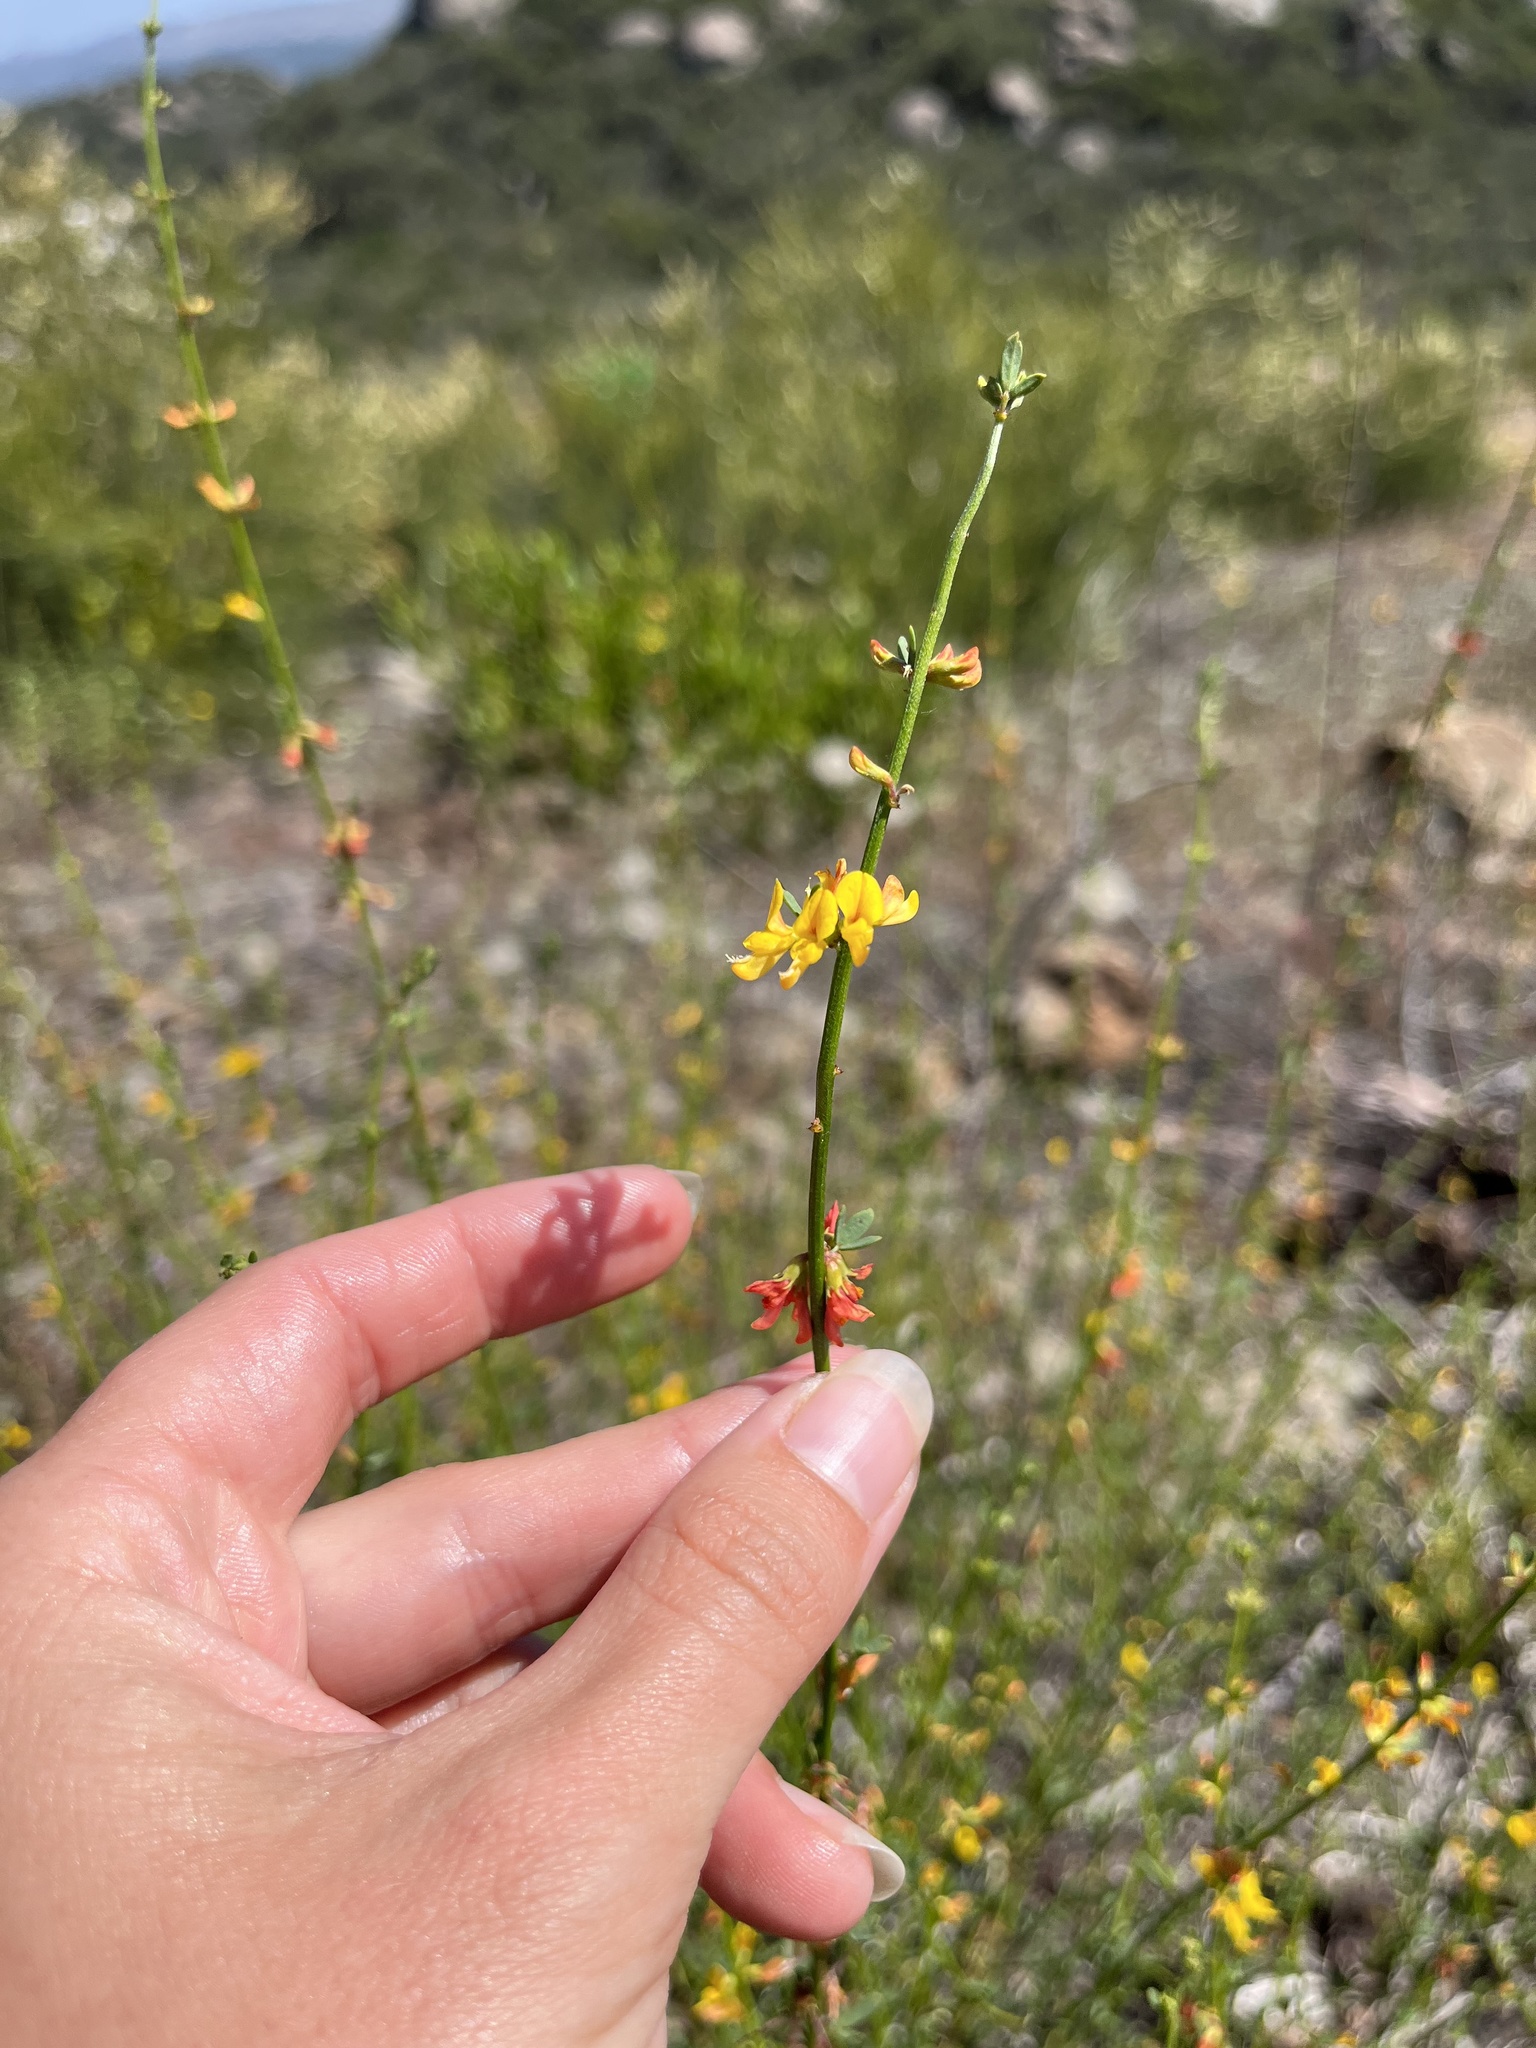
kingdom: Plantae
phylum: Tracheophyta
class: Magnoliopsida
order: Fabales
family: Fabaceae
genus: Acmispon
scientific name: Acmispon glaber
